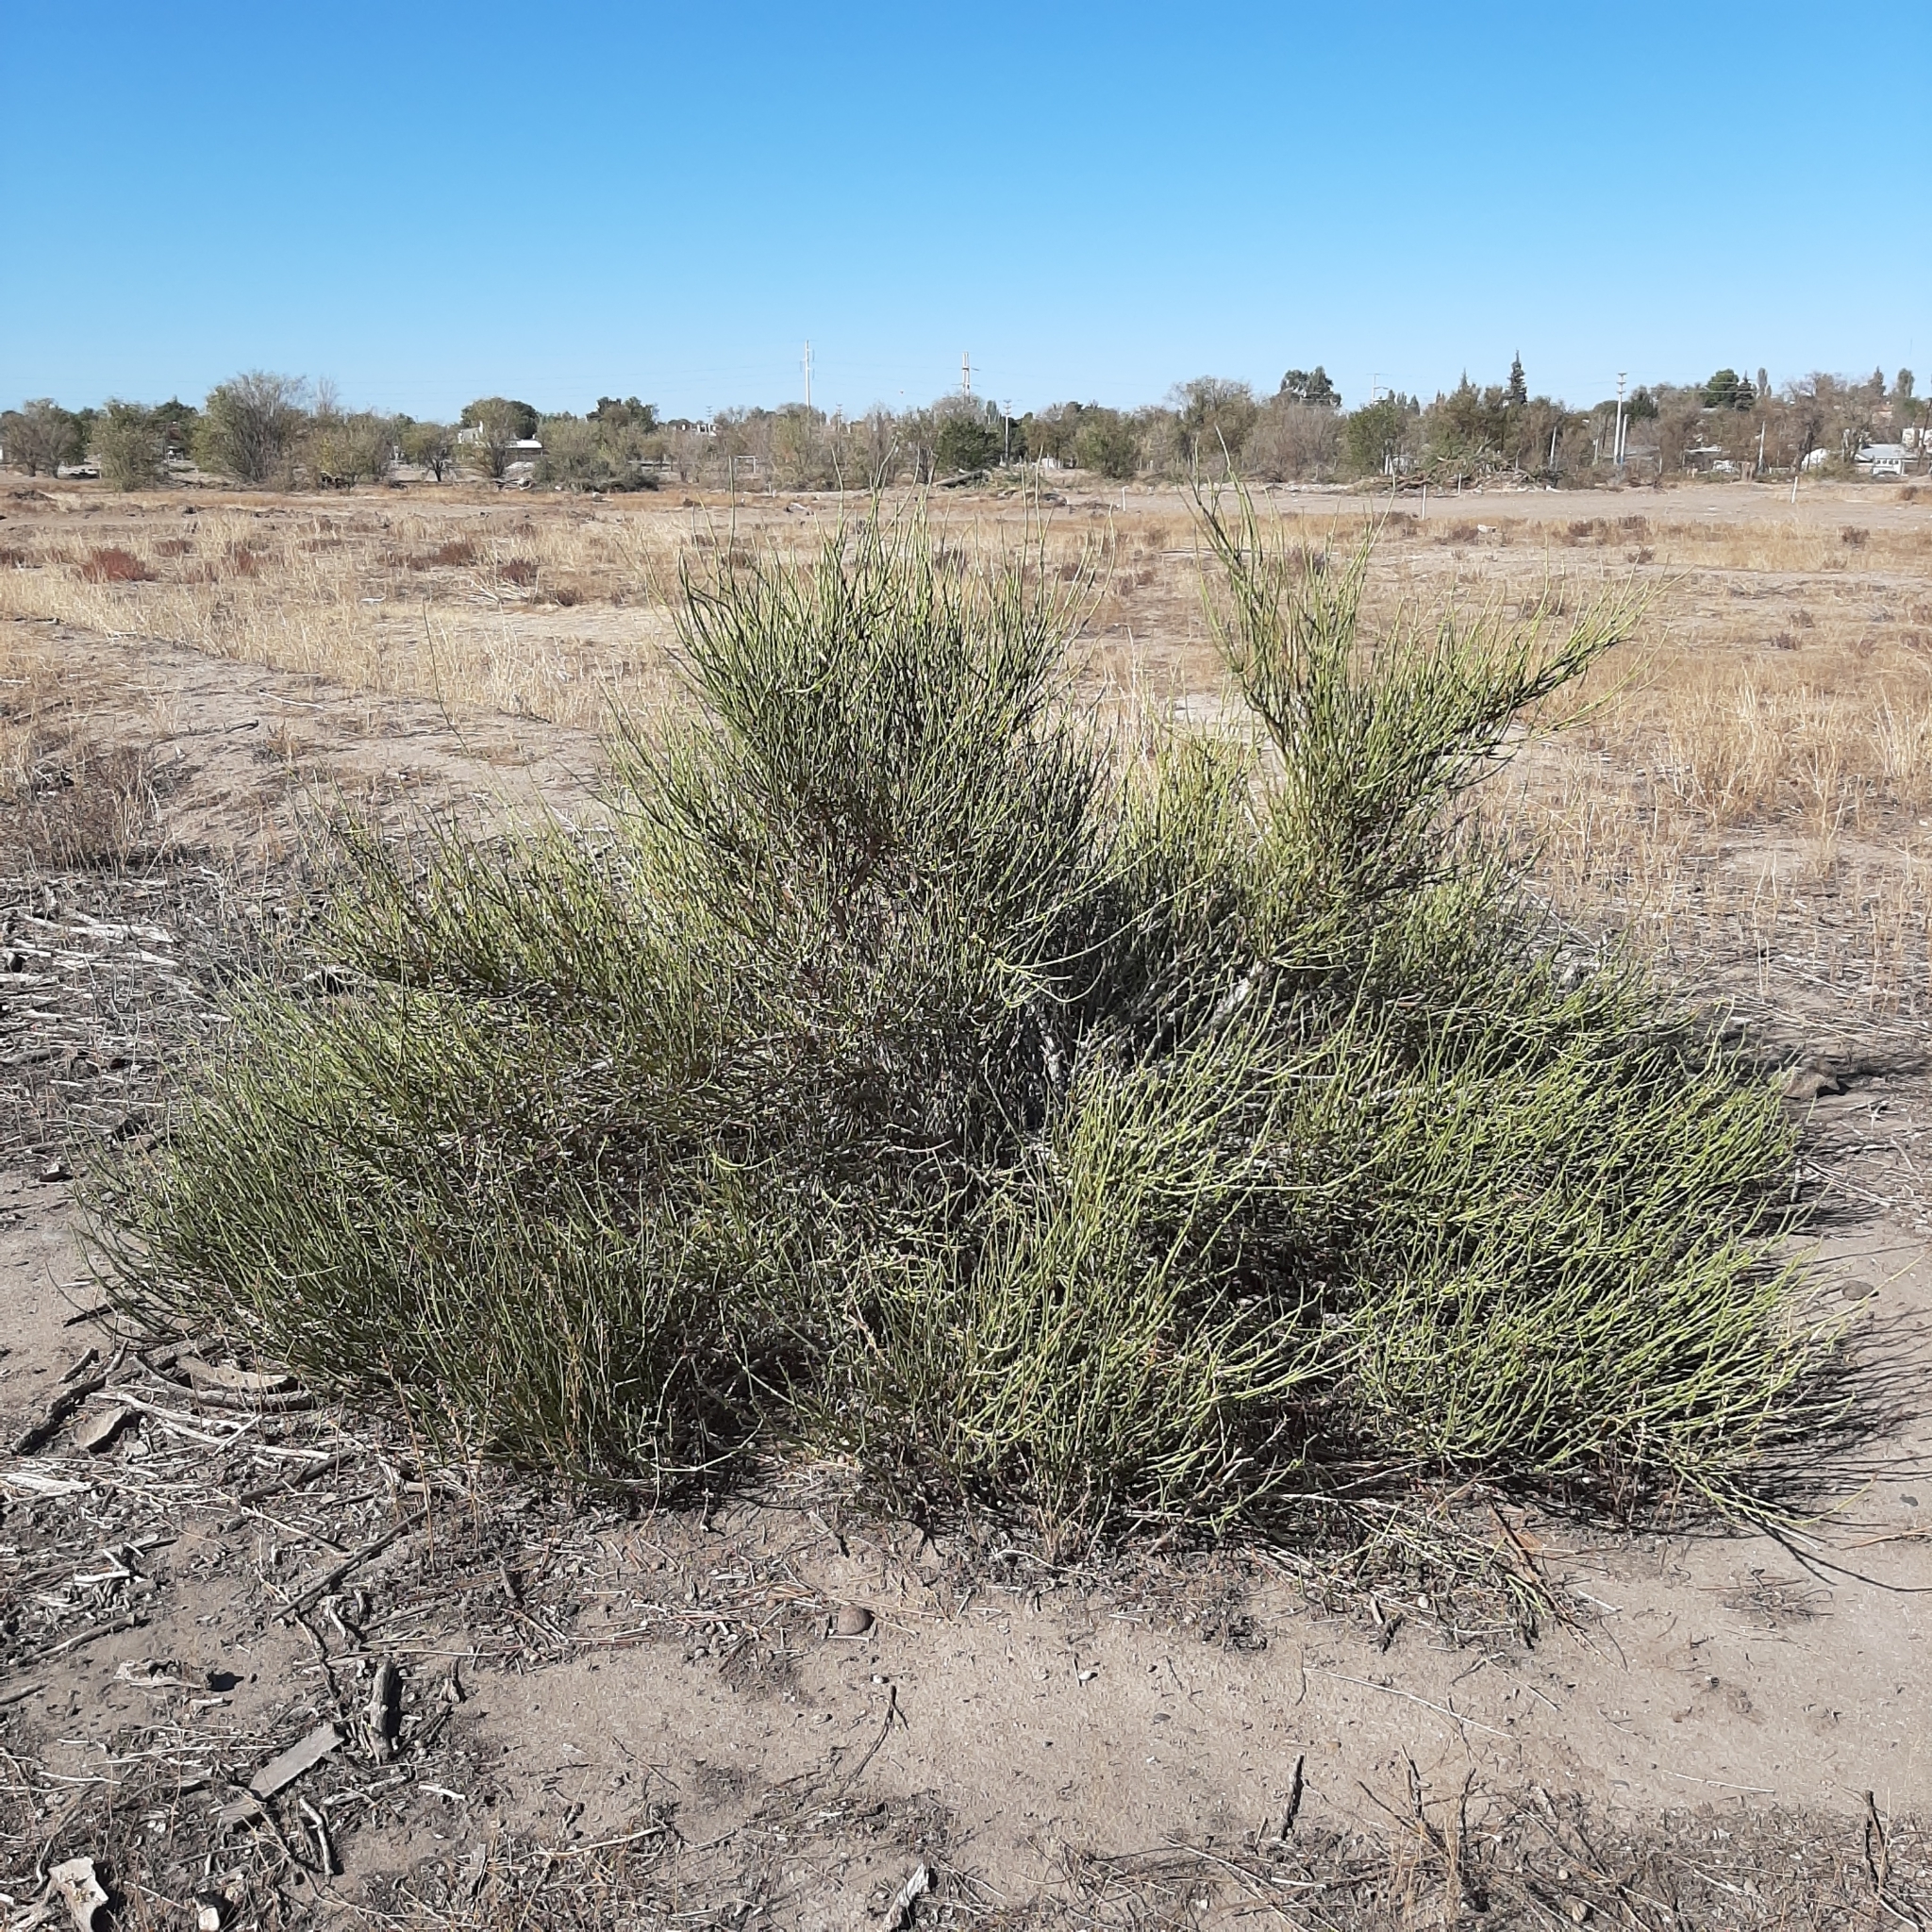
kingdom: Plantae
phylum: Tracheophyta
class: Gnetopsida
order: Ephedrales
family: Ephedraceae
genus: Ephedra
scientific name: Ephedra ochreata
